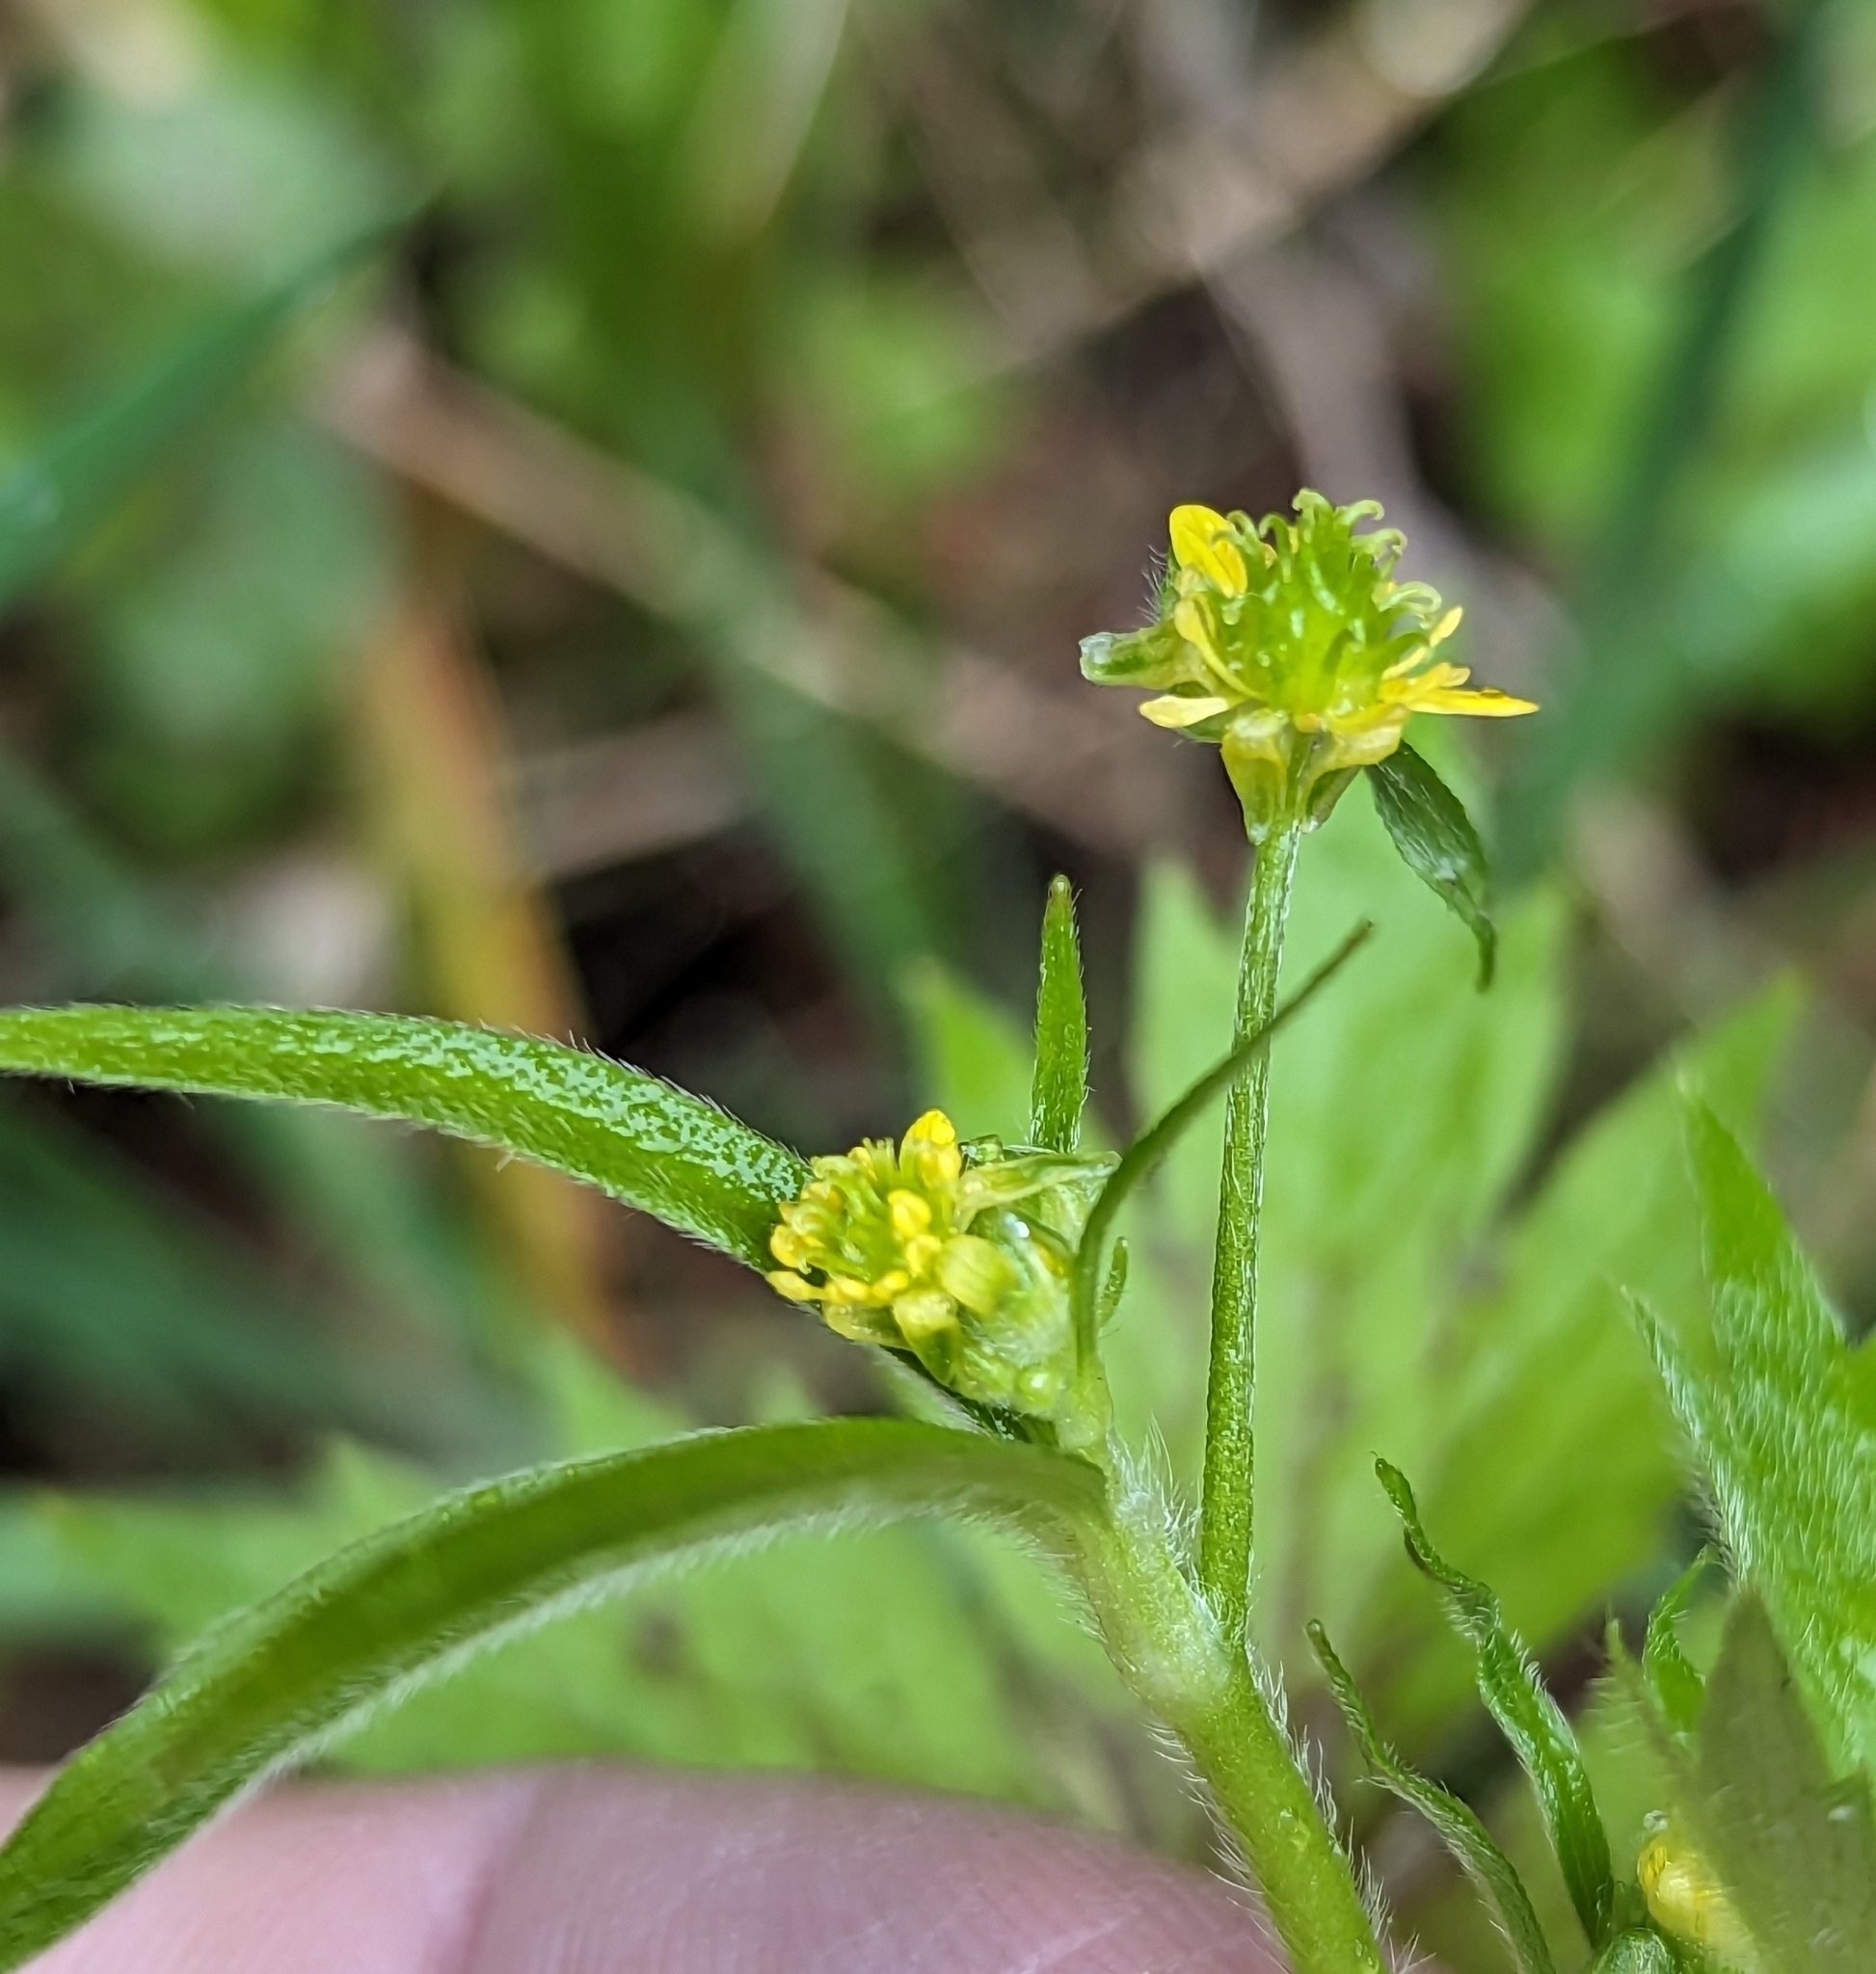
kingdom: Plantae
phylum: Tracheophyta
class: Magnoliopsida
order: Ranunculales
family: Ranunculaceae
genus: Ranunculus
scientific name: Ranunculus uncinatus
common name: Little buttercup
